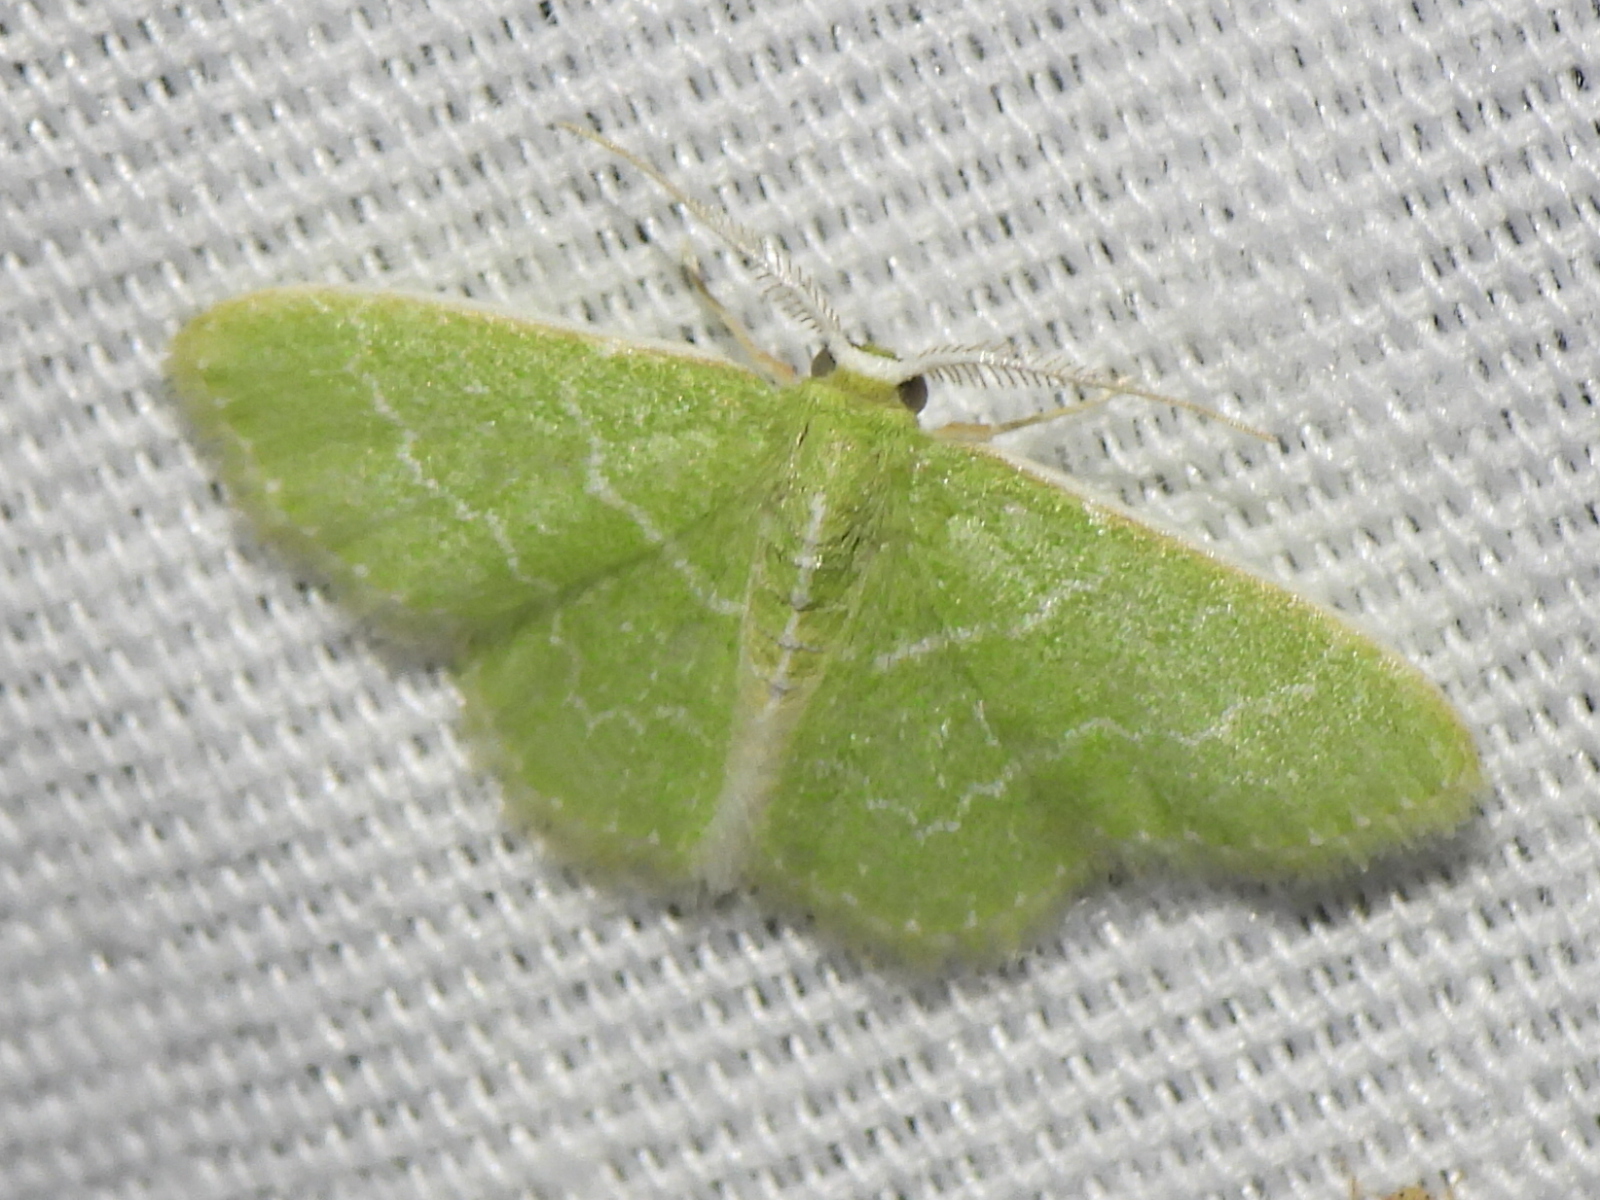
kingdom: Animalia
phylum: Arthropoda
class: Insecta
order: Lepidoptera
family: Geometridae
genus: Synchlora
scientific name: Synchlora frondaria
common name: Southern emerald
